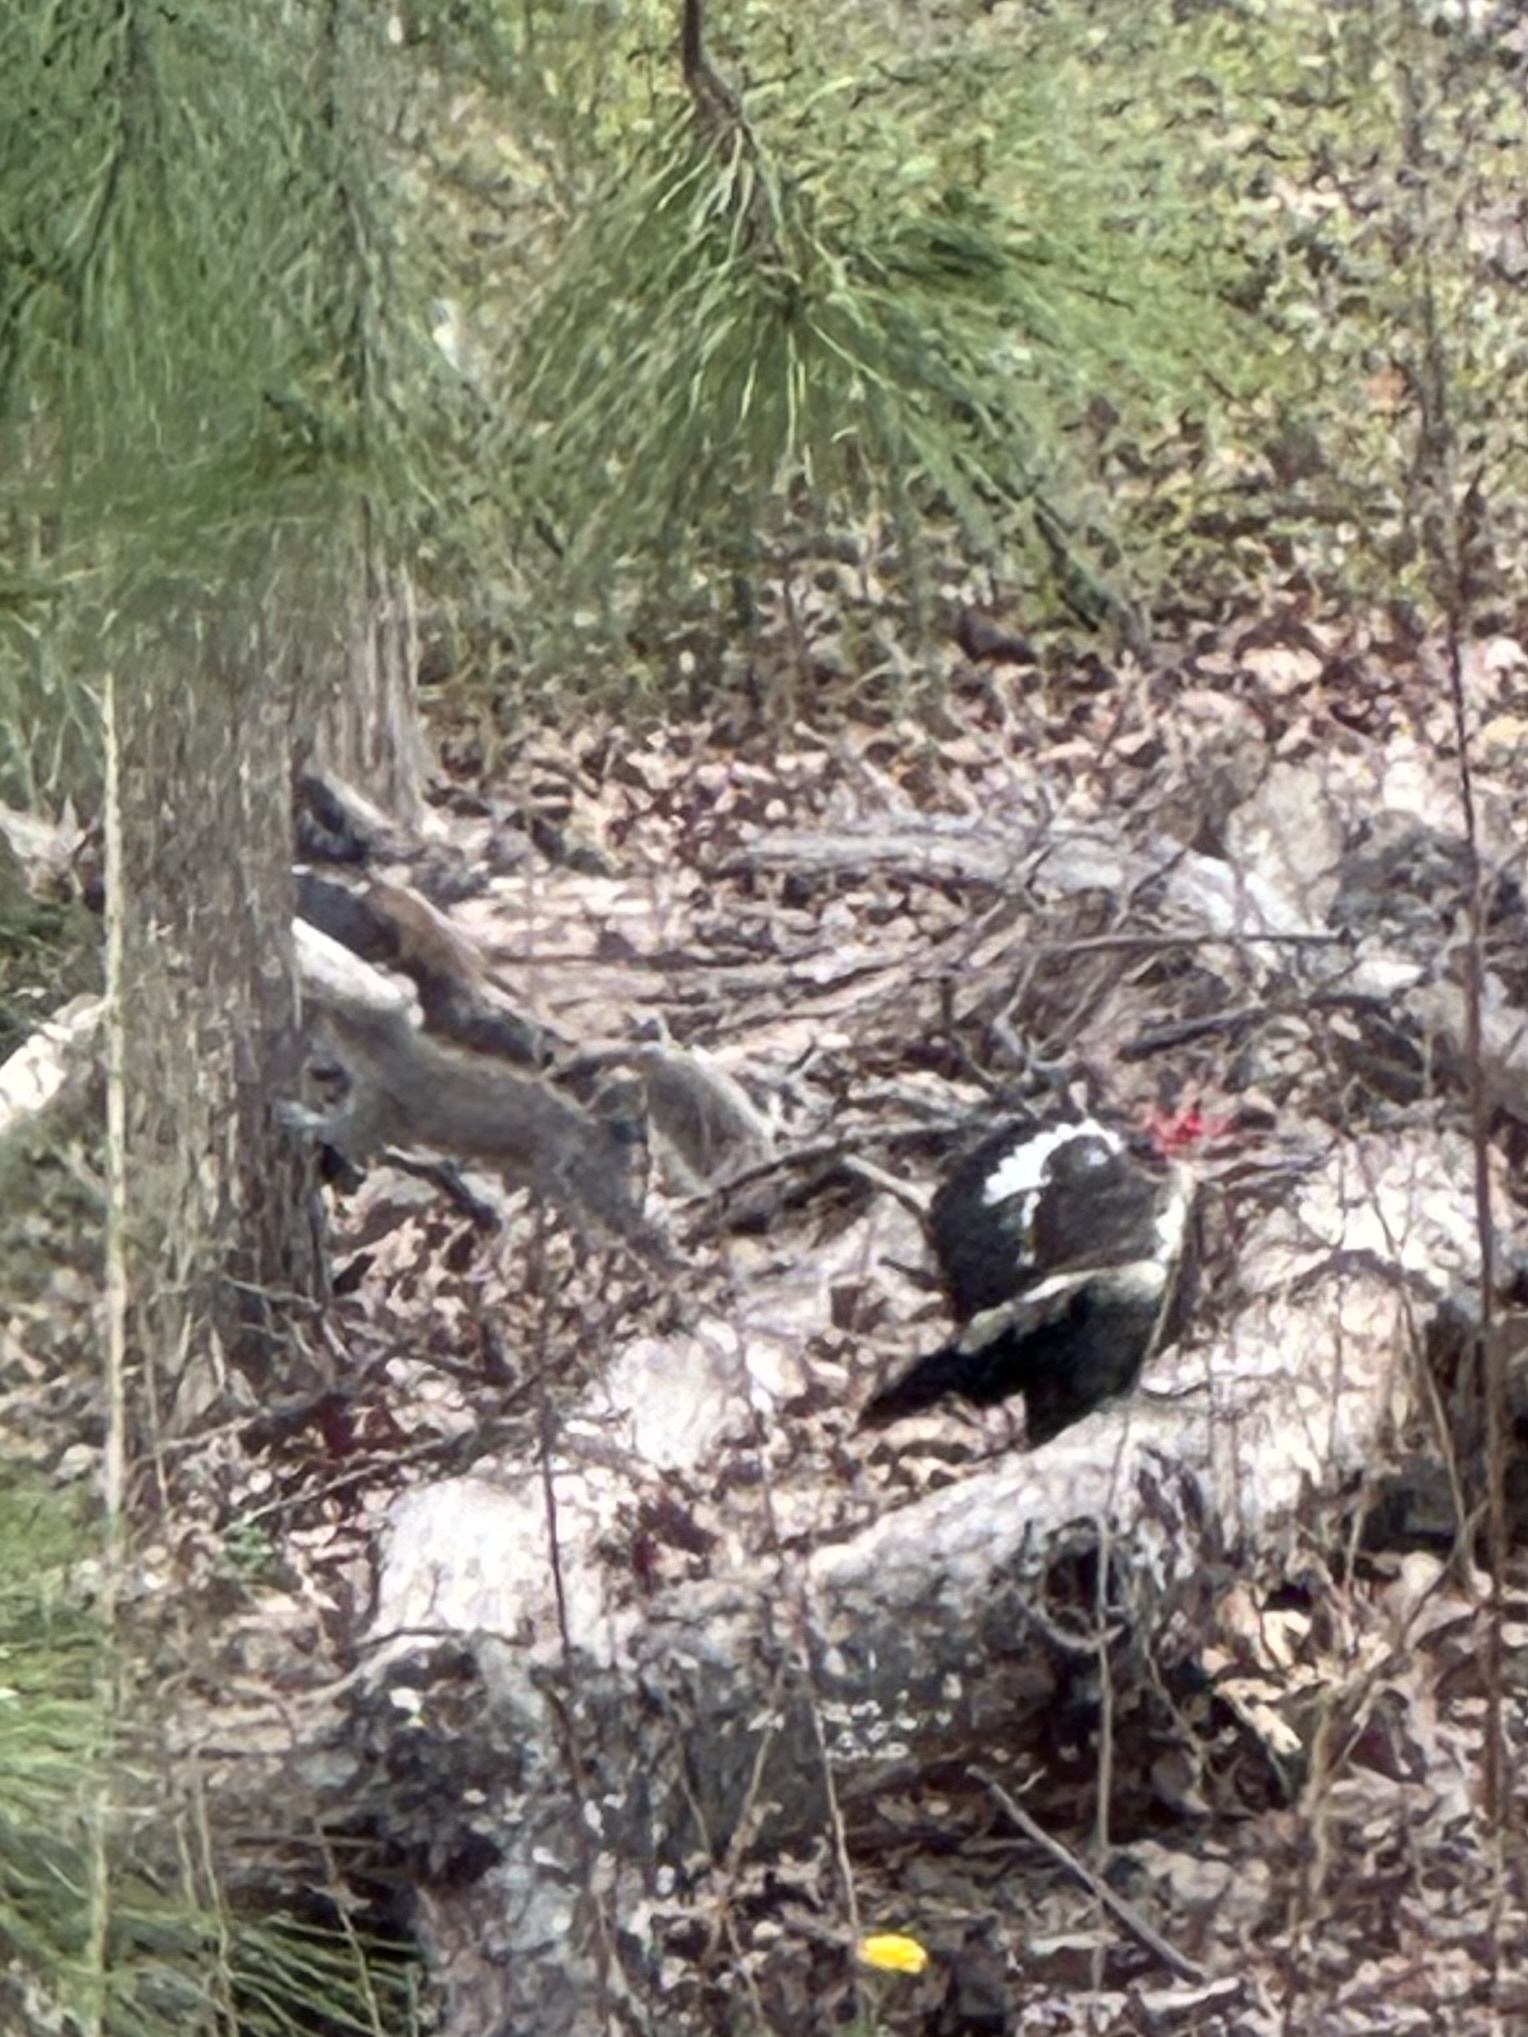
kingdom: Animalia
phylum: Chordata
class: Mammalia
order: Rodentia
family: Sciuridae
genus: Sciurus
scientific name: Sciurus carolinensis
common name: Eastern gray squirrel
